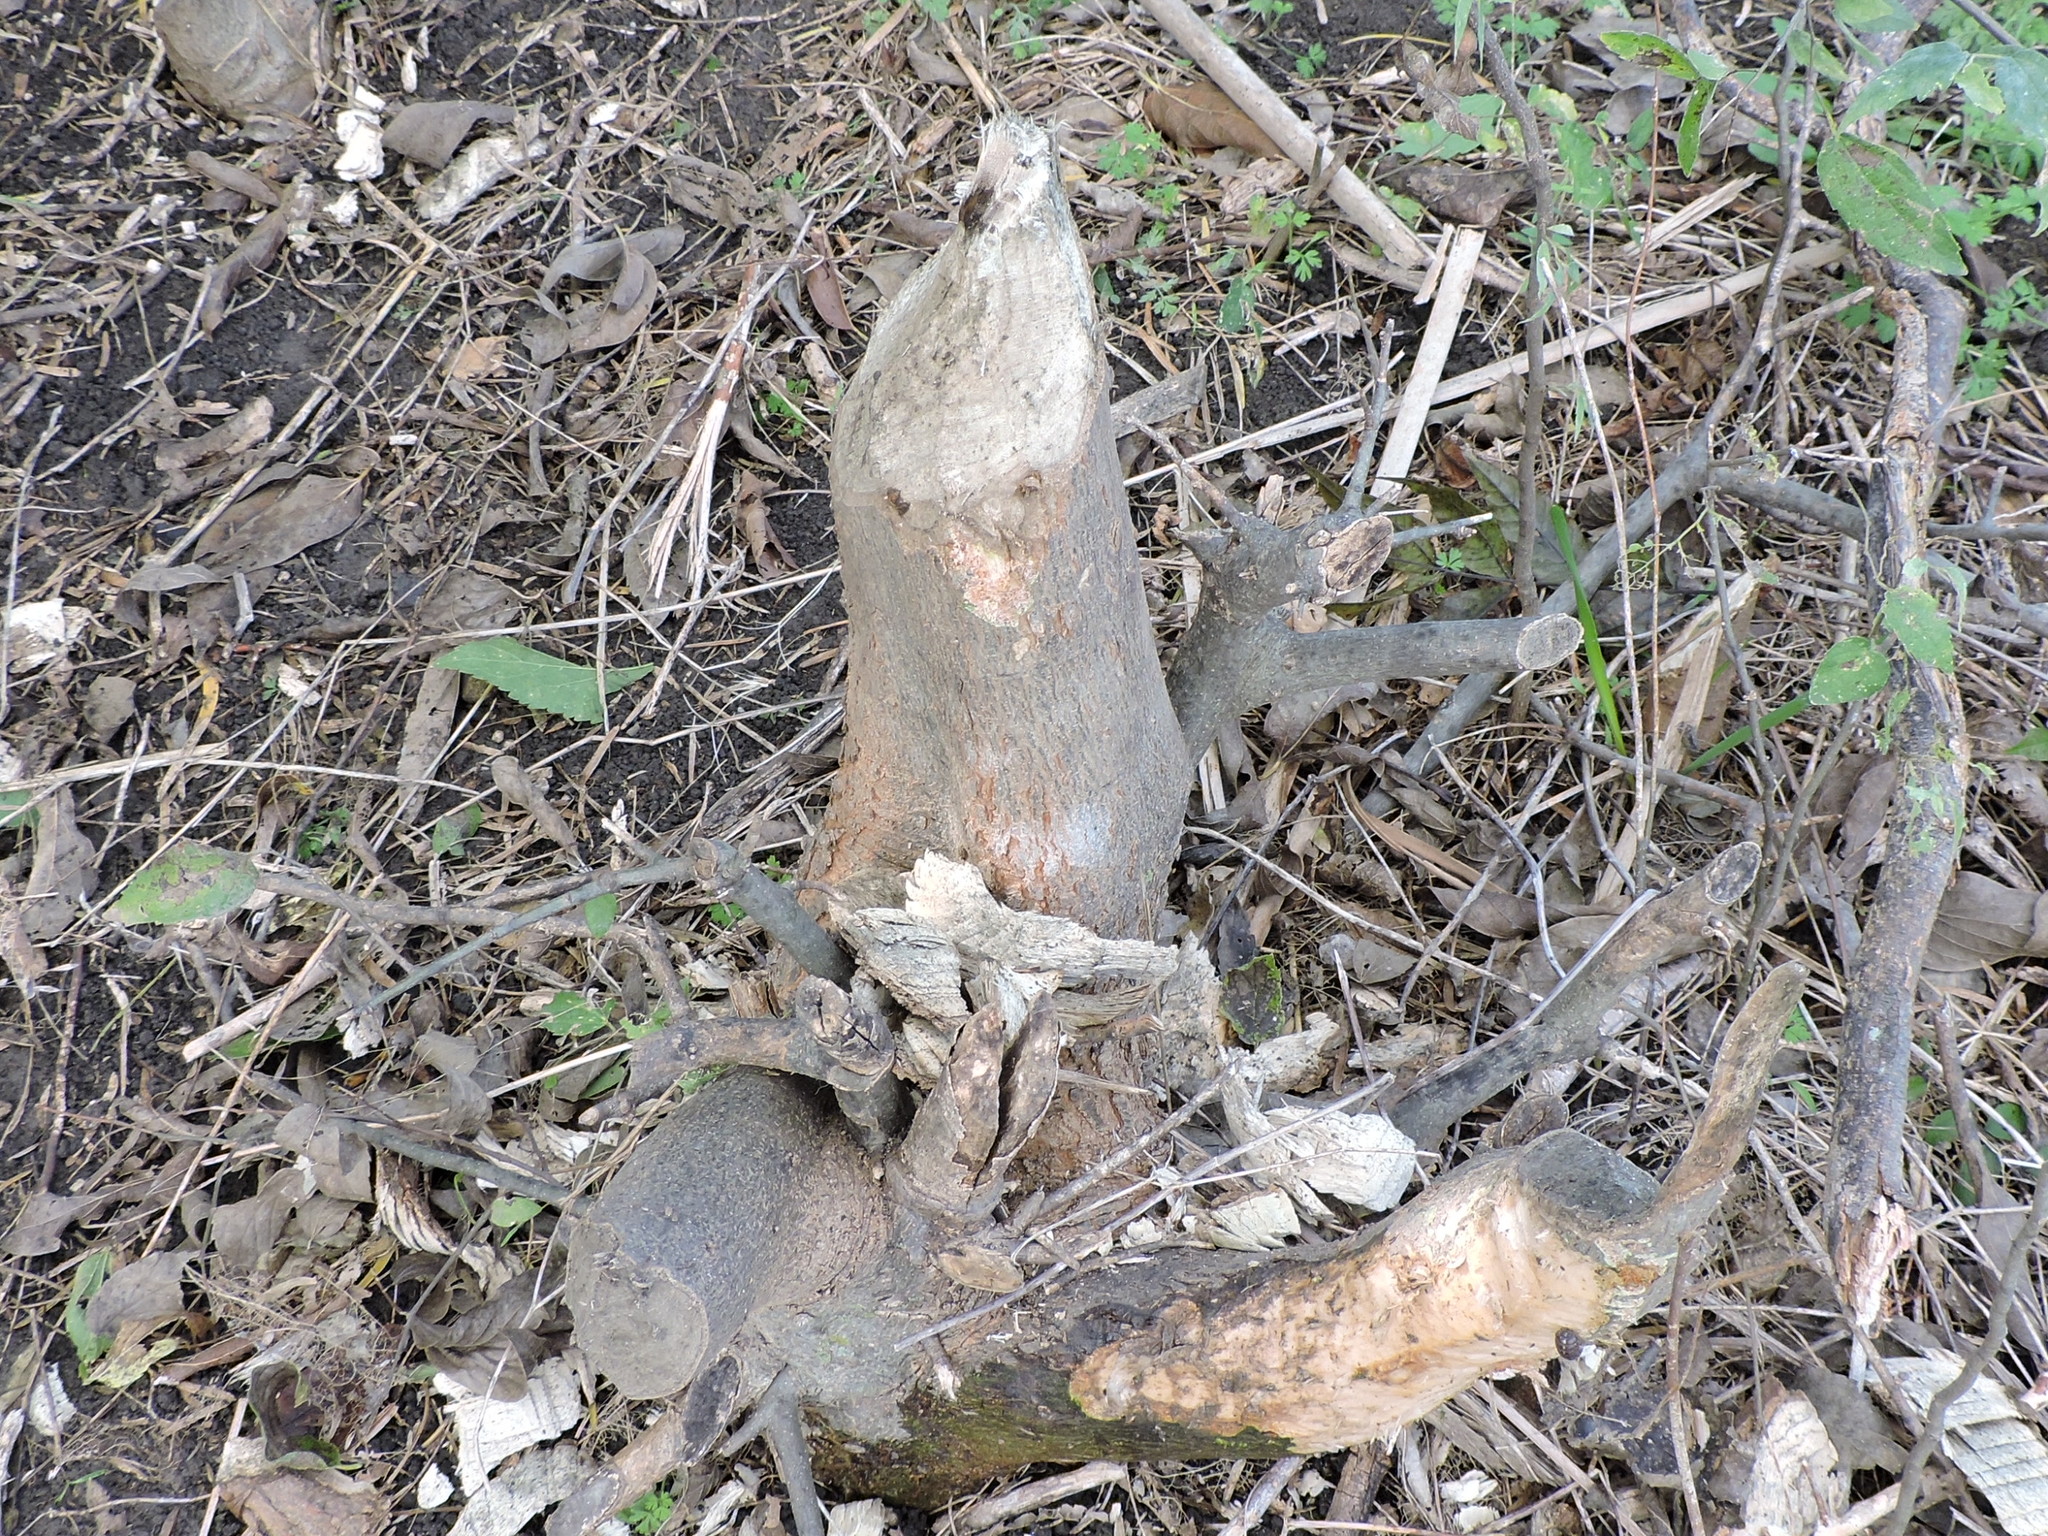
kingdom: Animalia
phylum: Chordata
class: Mammalia
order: Rodentia
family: Castoridae
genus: Castor
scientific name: Castor canadensis
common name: American beaver
